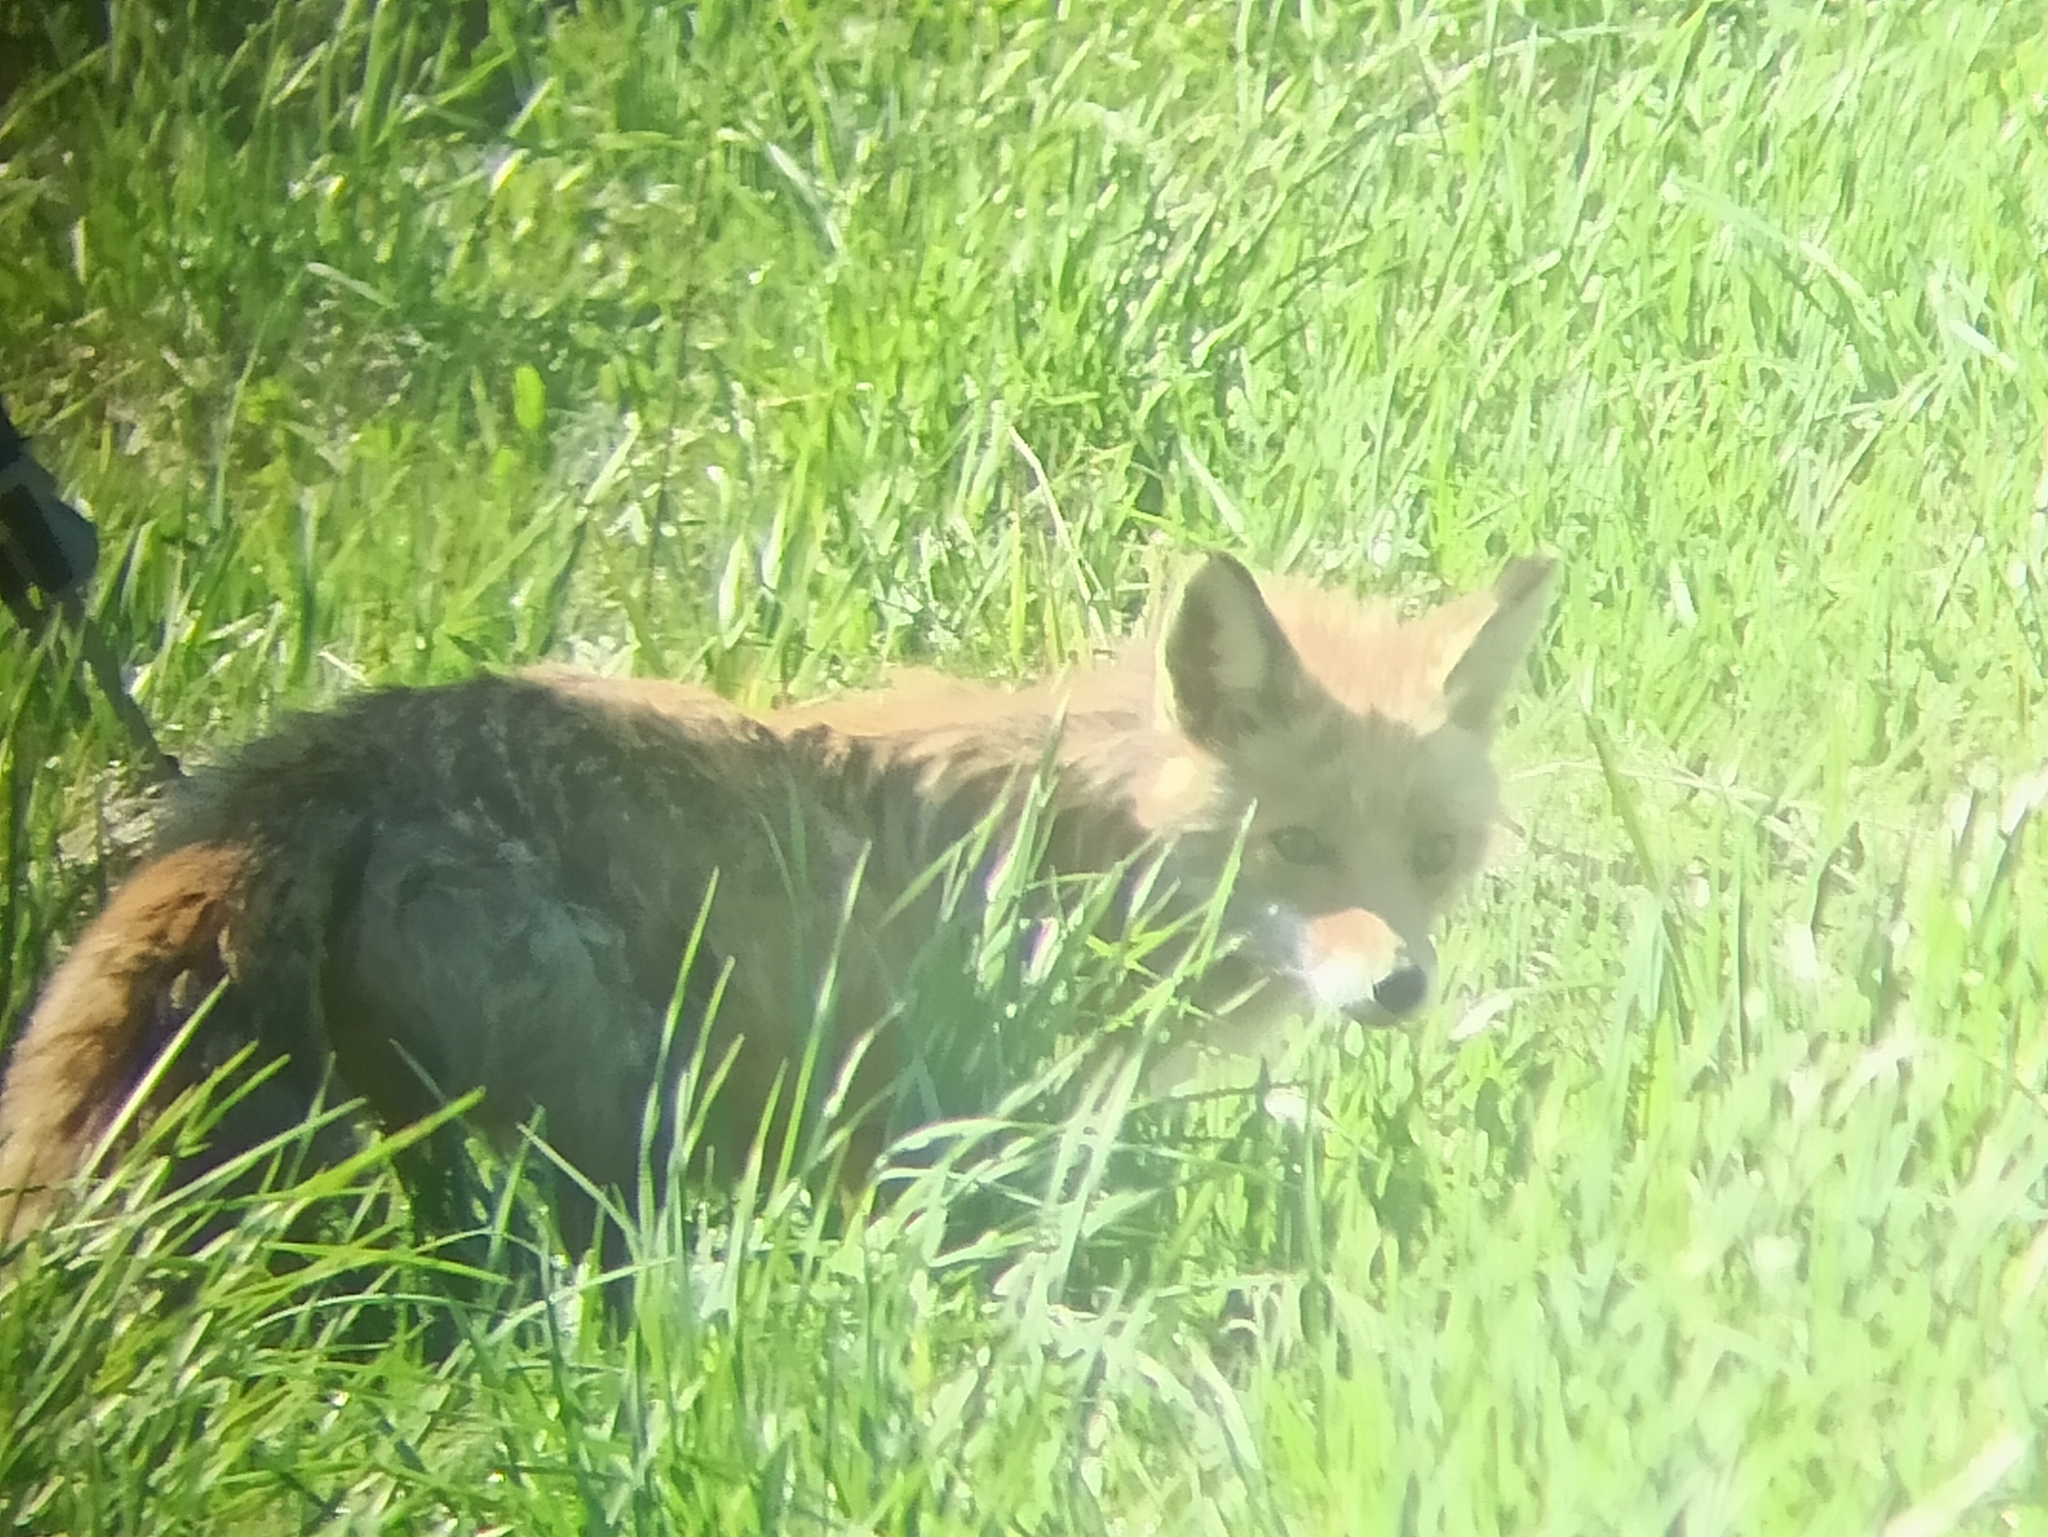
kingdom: Animalia
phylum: Chordata
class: Mammalia
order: Carnivora
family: Canidae
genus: Vulpes
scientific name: Vulpes vulpes
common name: Red fox
